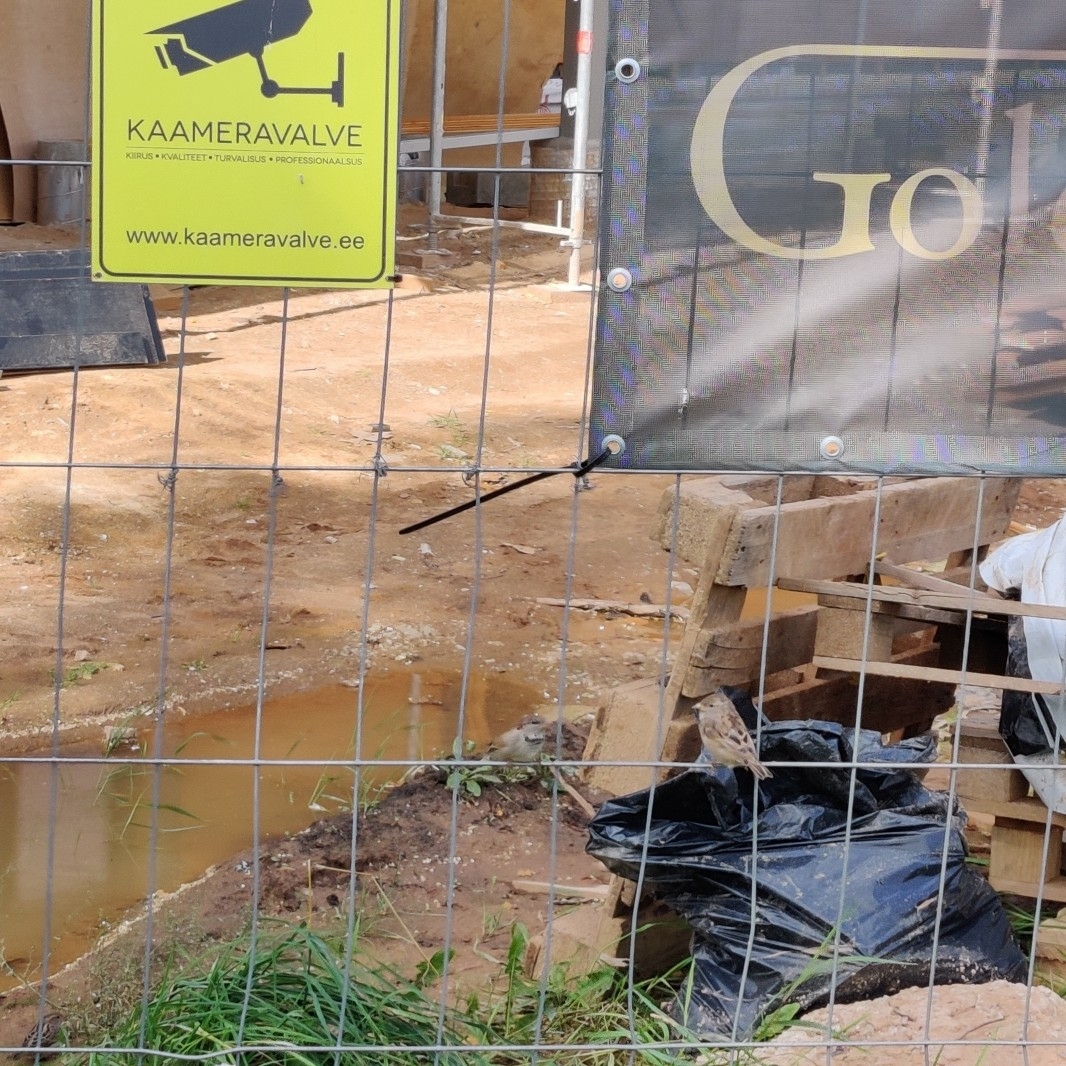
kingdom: Animalia
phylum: Chordata
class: Aves
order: Passeriformes
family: Passeridae
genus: Passer
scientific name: Passer domesticus
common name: House sparrow
